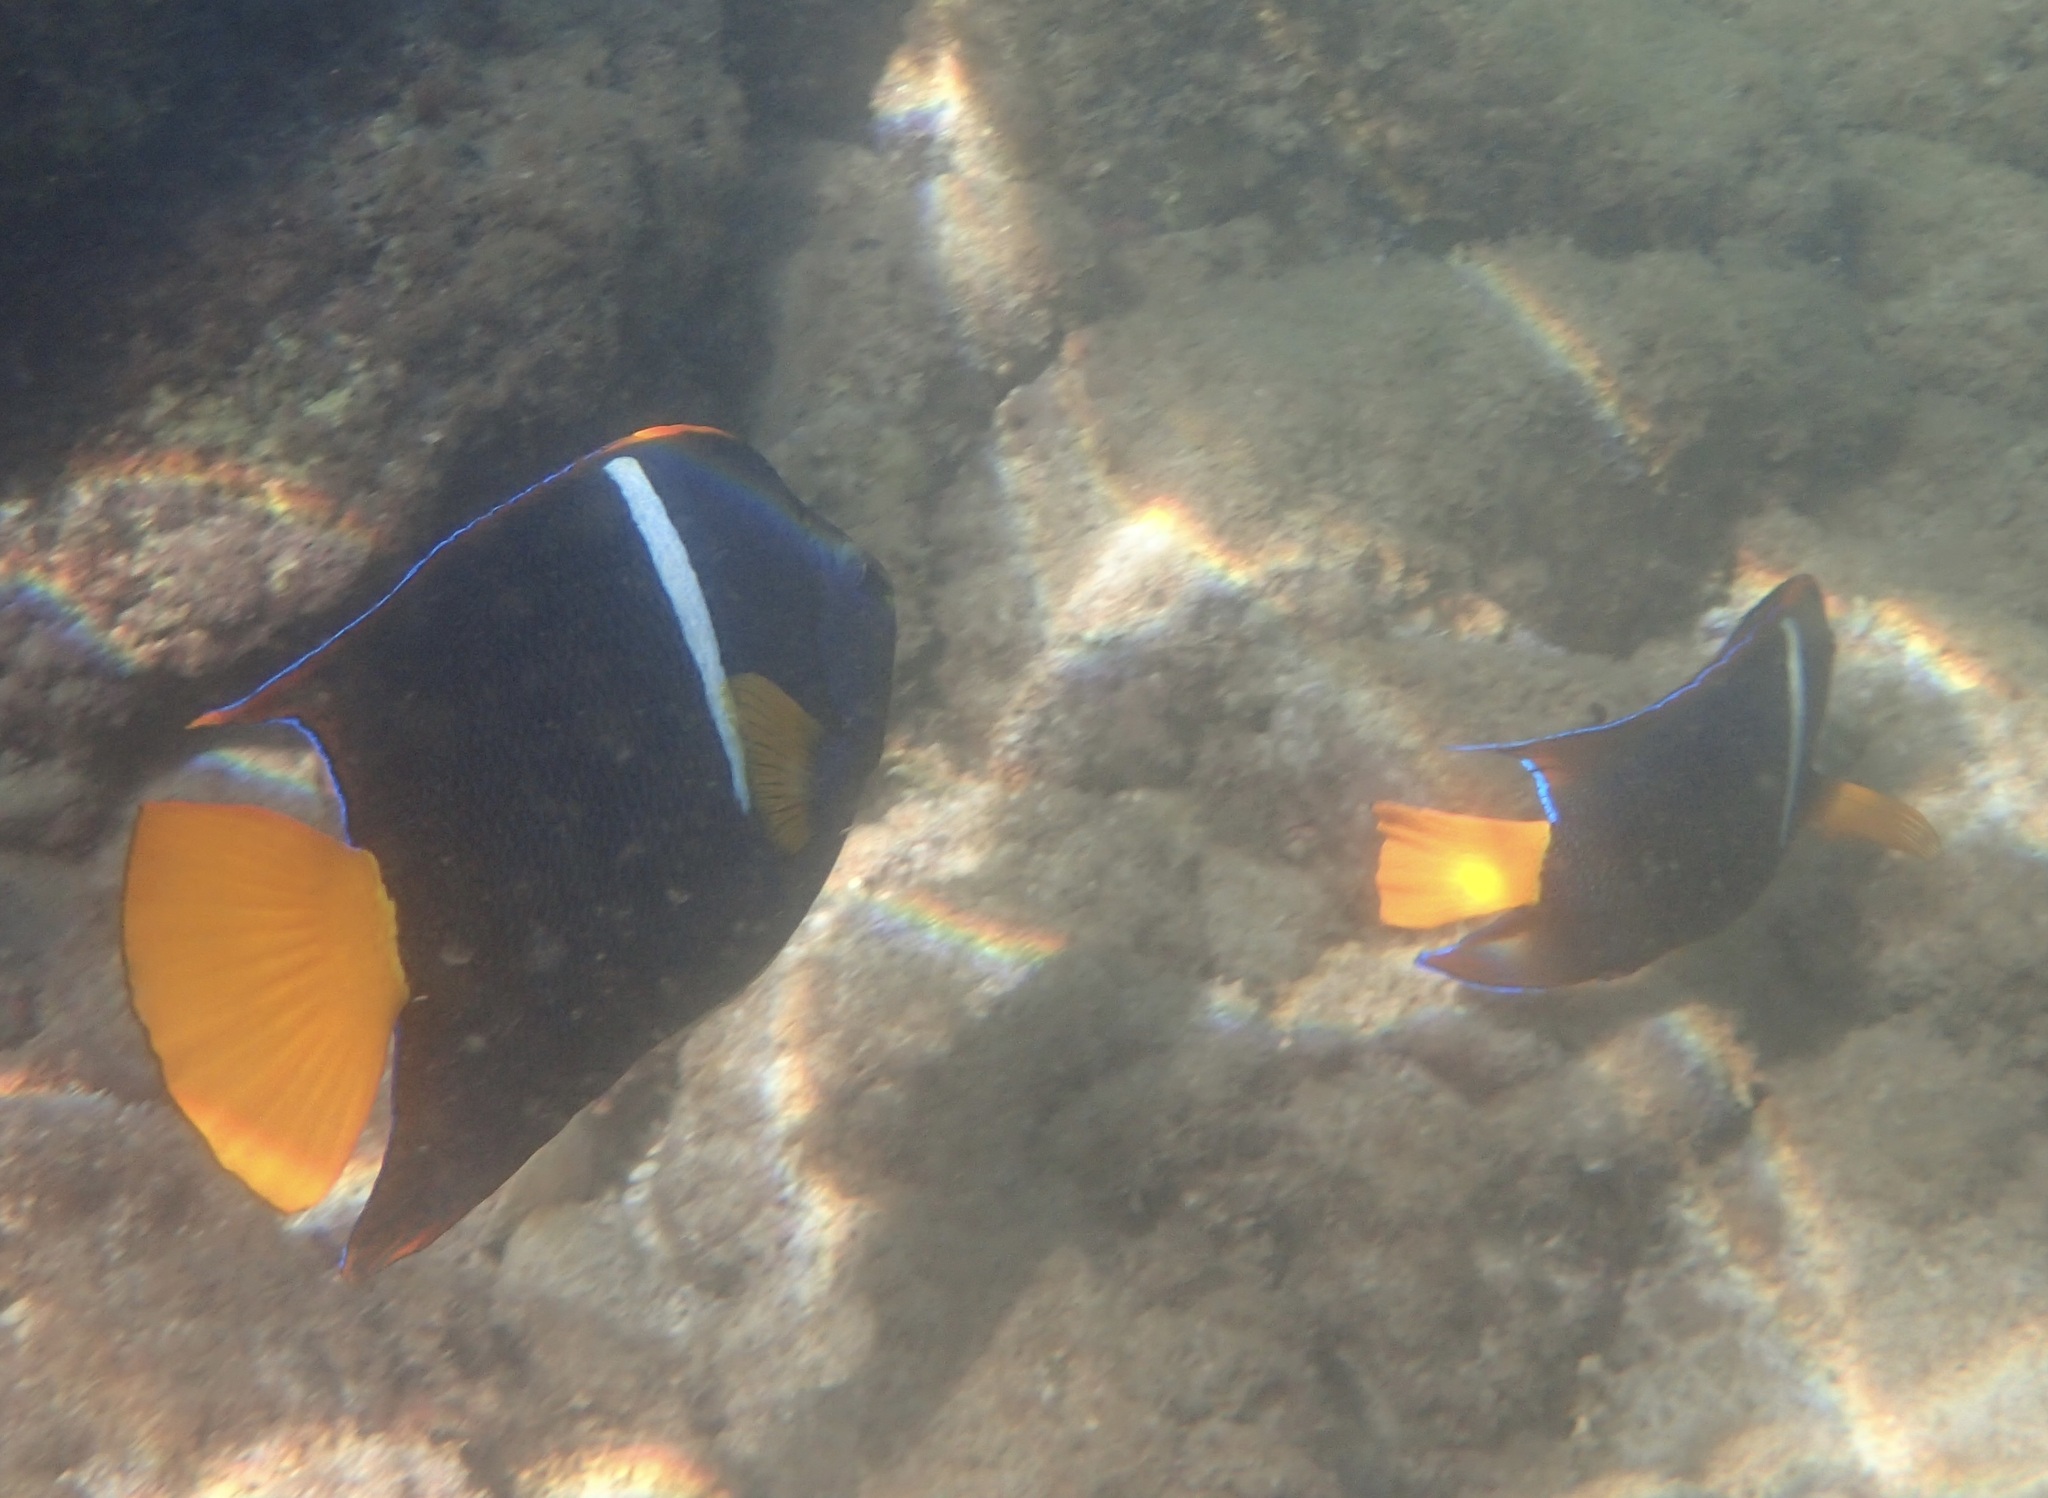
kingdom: Animalia
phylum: Chordata
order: Perciformes
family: Pomacanthidae
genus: Holacanthus
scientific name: Holacanthus passer
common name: King angelfish
